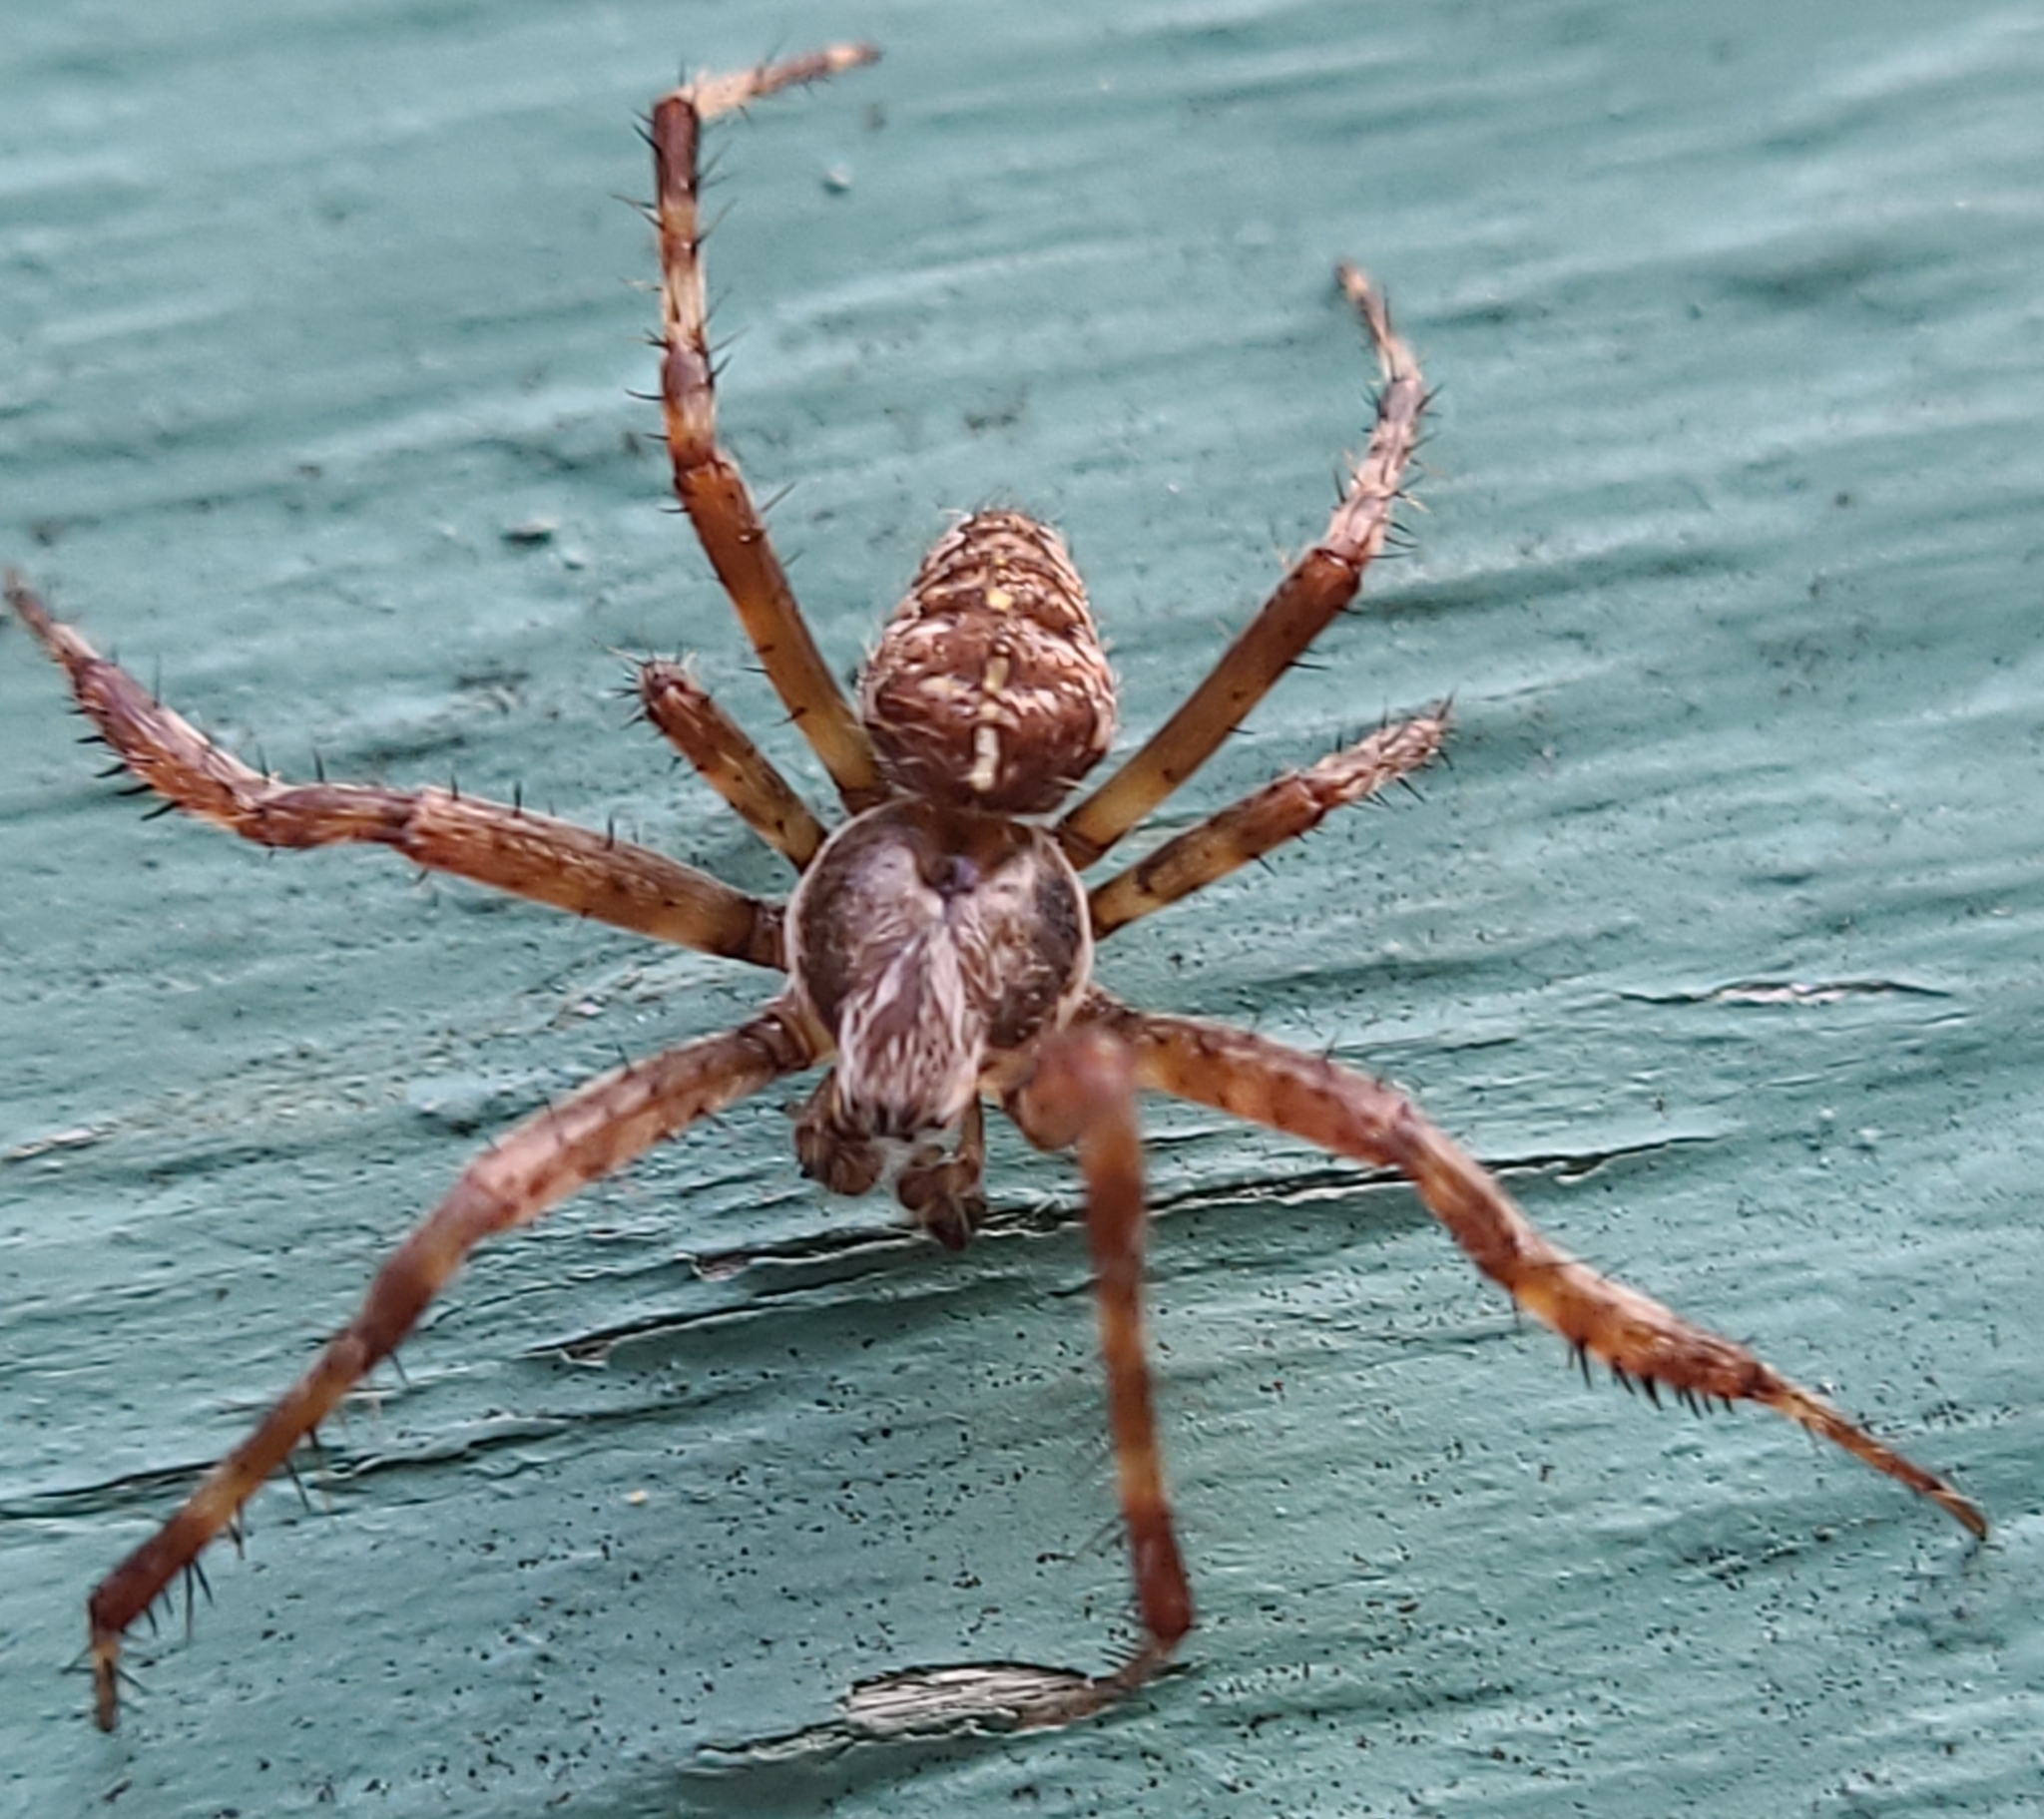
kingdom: Animalia
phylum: Arthropoda
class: Arachnida
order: Araneae
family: Araneidae
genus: Araneus
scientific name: Araneus diadematus
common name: Cross orbweaver
